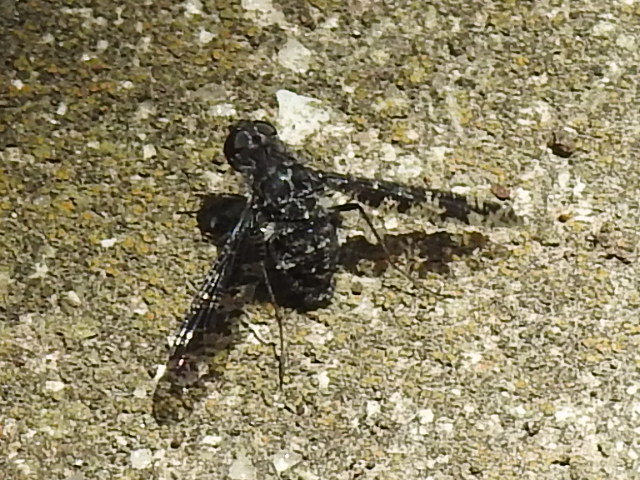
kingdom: Animalia
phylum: Arthropoda
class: Insecta
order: Diptera
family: Bombyliidae
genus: Anthrax
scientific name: Anthrax
